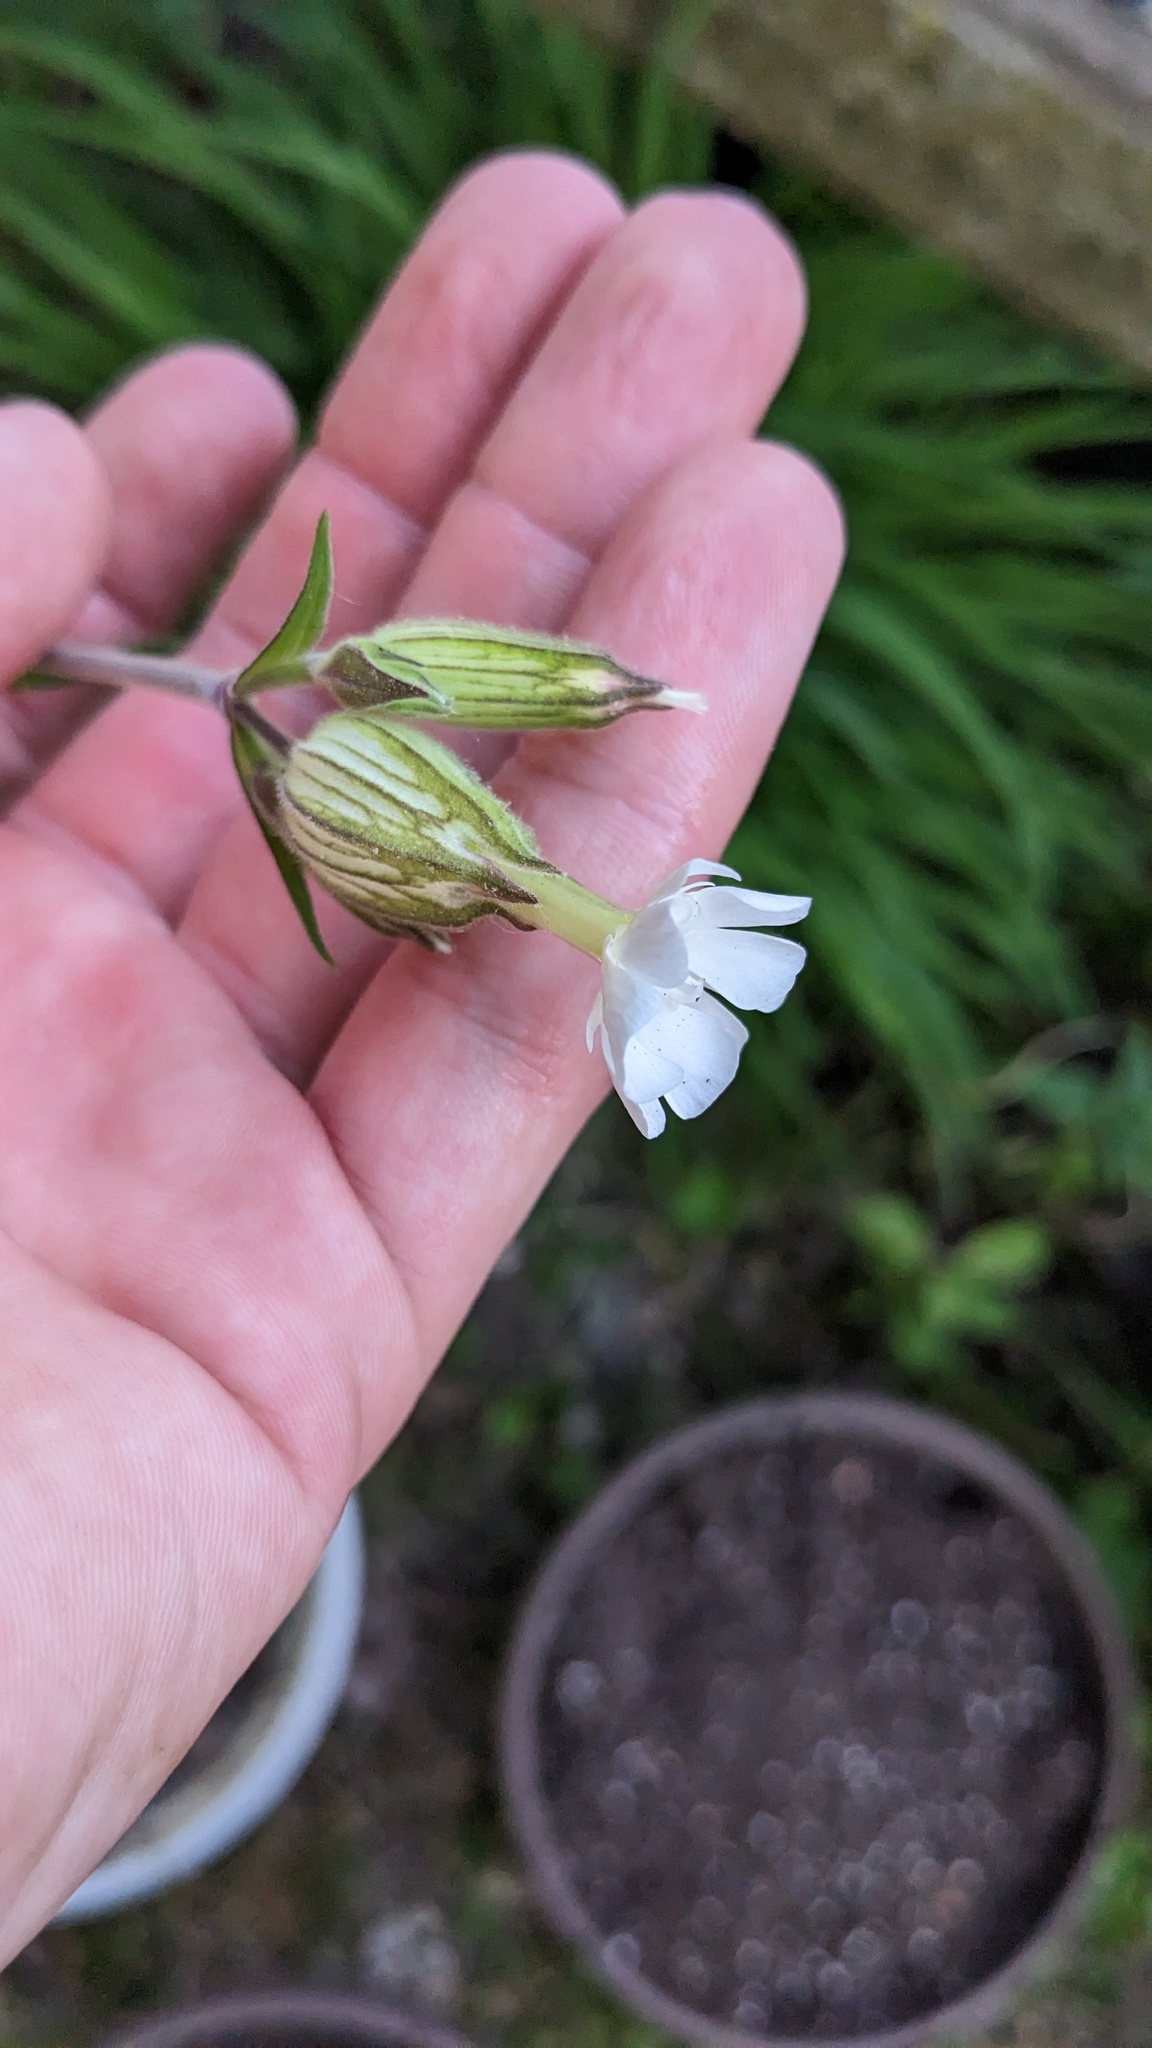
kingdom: Plantae
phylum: Tracheophyta
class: Magnoliopsida
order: Caryophyllales
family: Caryophyllaceae
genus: Silene
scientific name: Silene latifolia
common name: White campion
